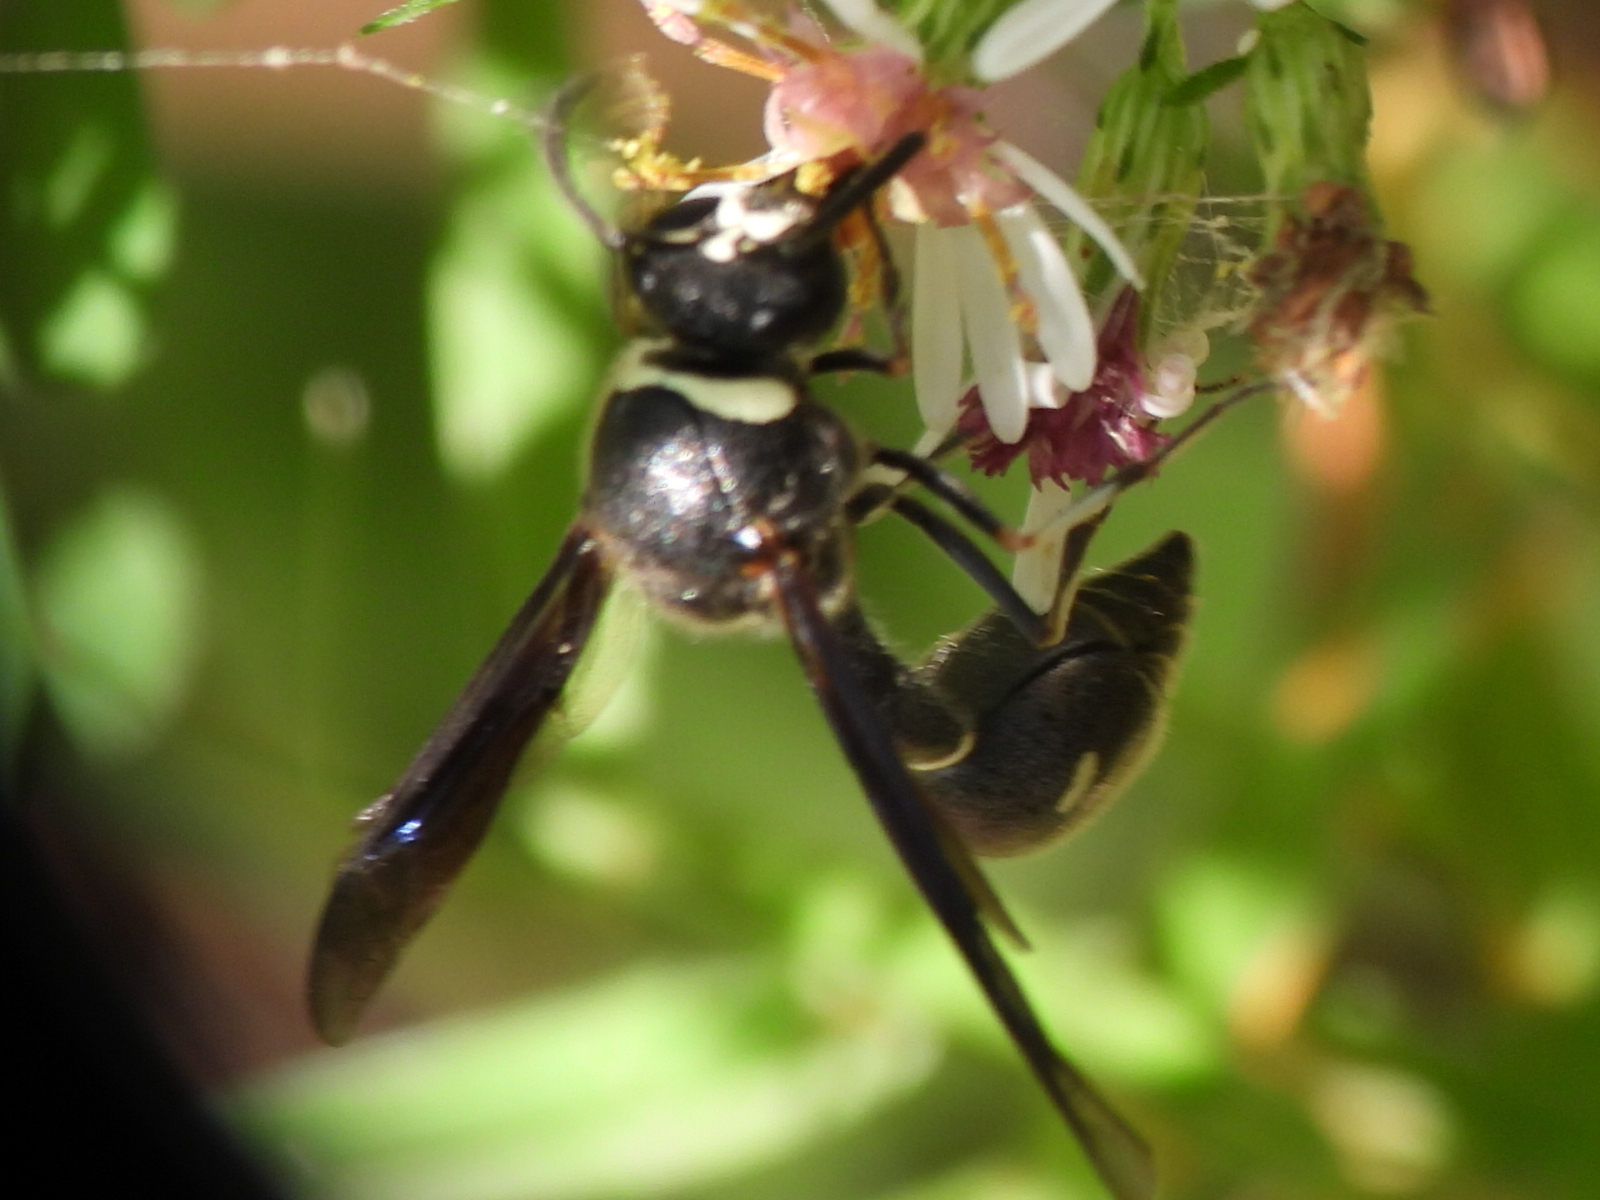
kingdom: Animalia
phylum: Arthropoda
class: Insecta
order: Hymenoptera
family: Vespidae
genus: Eumenes
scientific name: Eumenes fraternus
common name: Fraternal potter wasp
